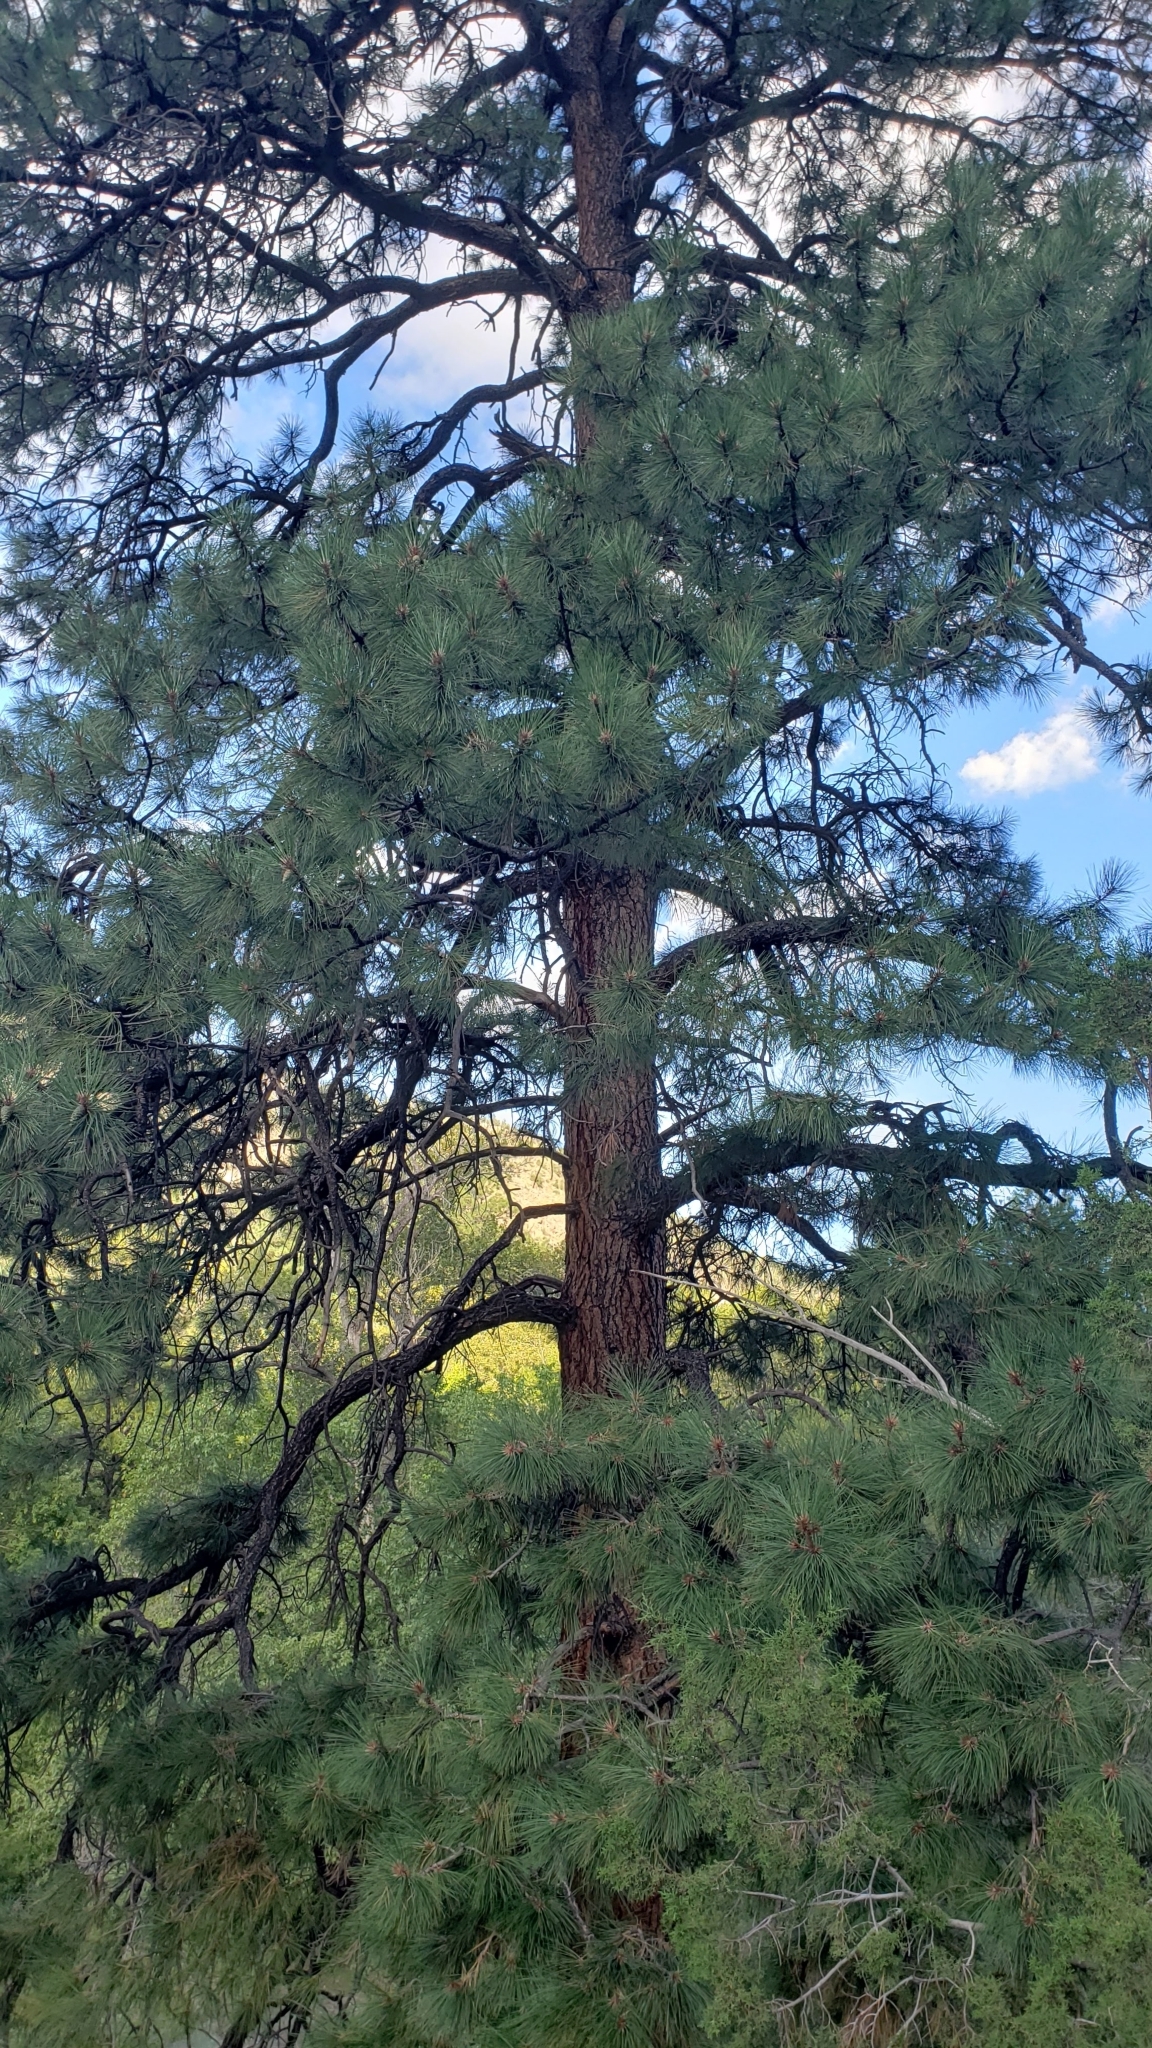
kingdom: Plantae
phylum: Tracheophyta
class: Pinopsida
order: Pinales
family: Pinaceae
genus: Pinus
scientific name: Pinus ponderosa
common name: Western yellow-pine
